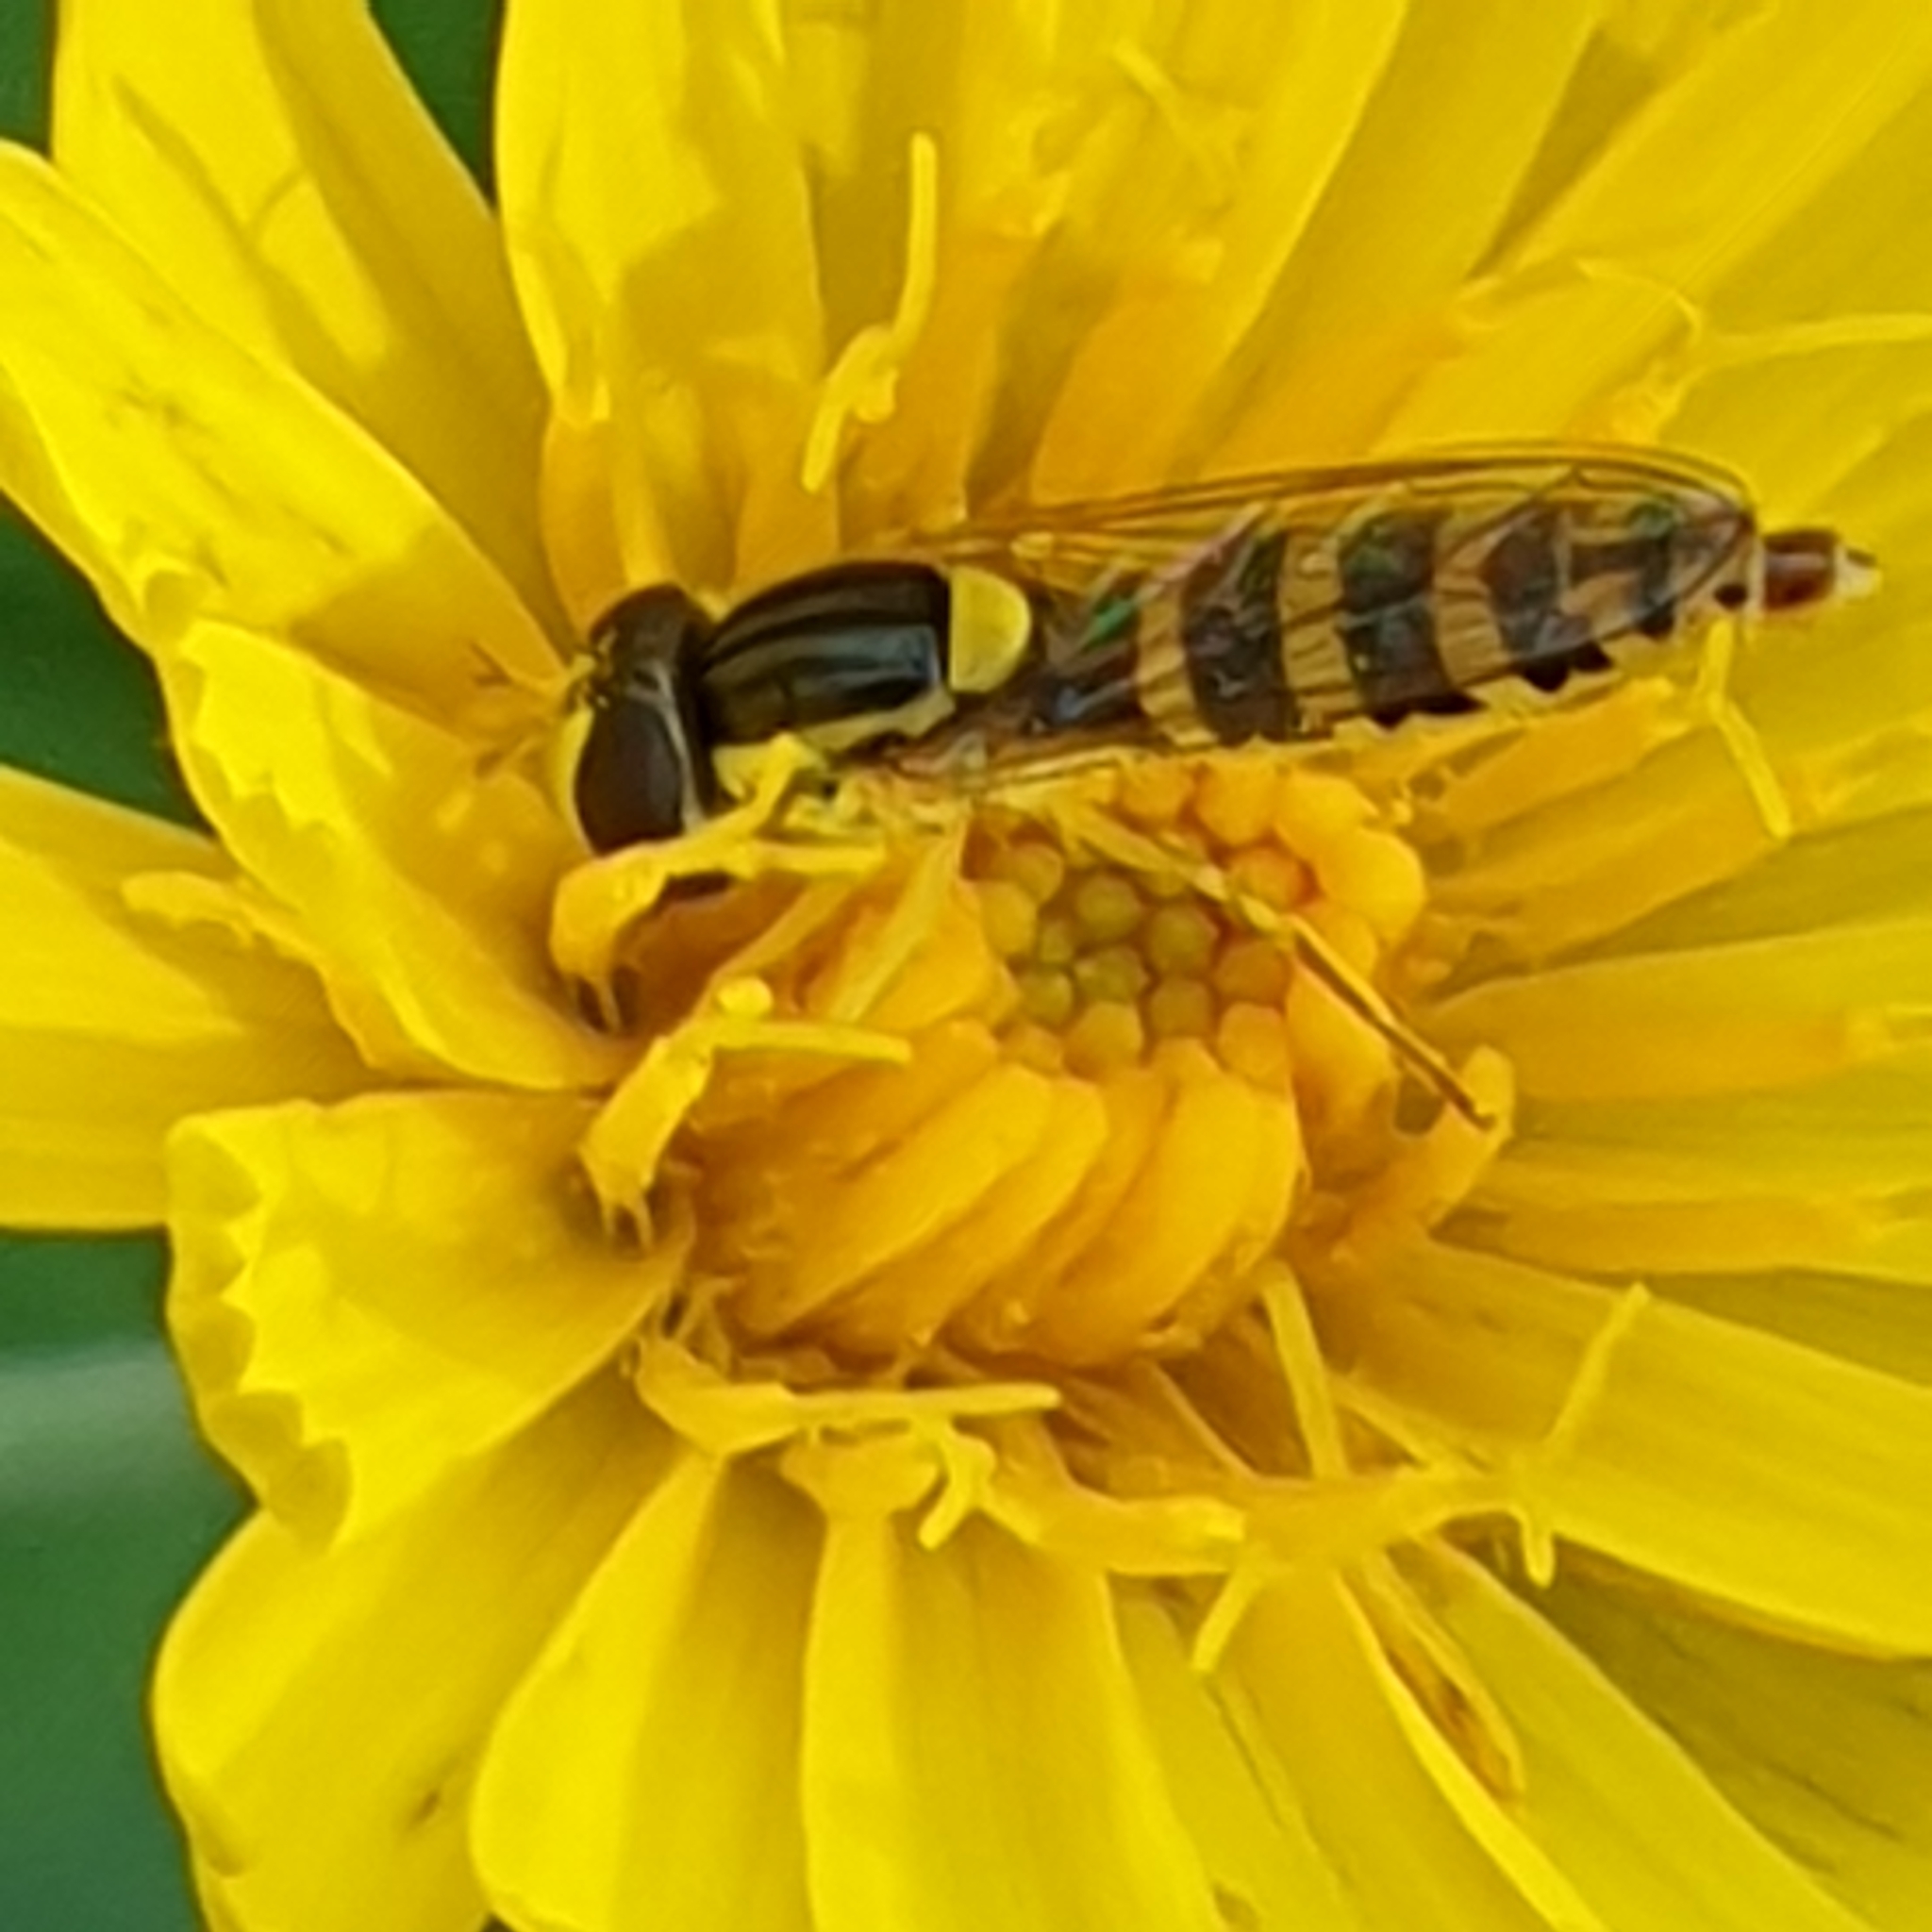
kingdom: Animalia
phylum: Arthropoda
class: Insecta
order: Diptera
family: Syrphidae
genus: Sphaerophoria
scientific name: Sphaerophoria
